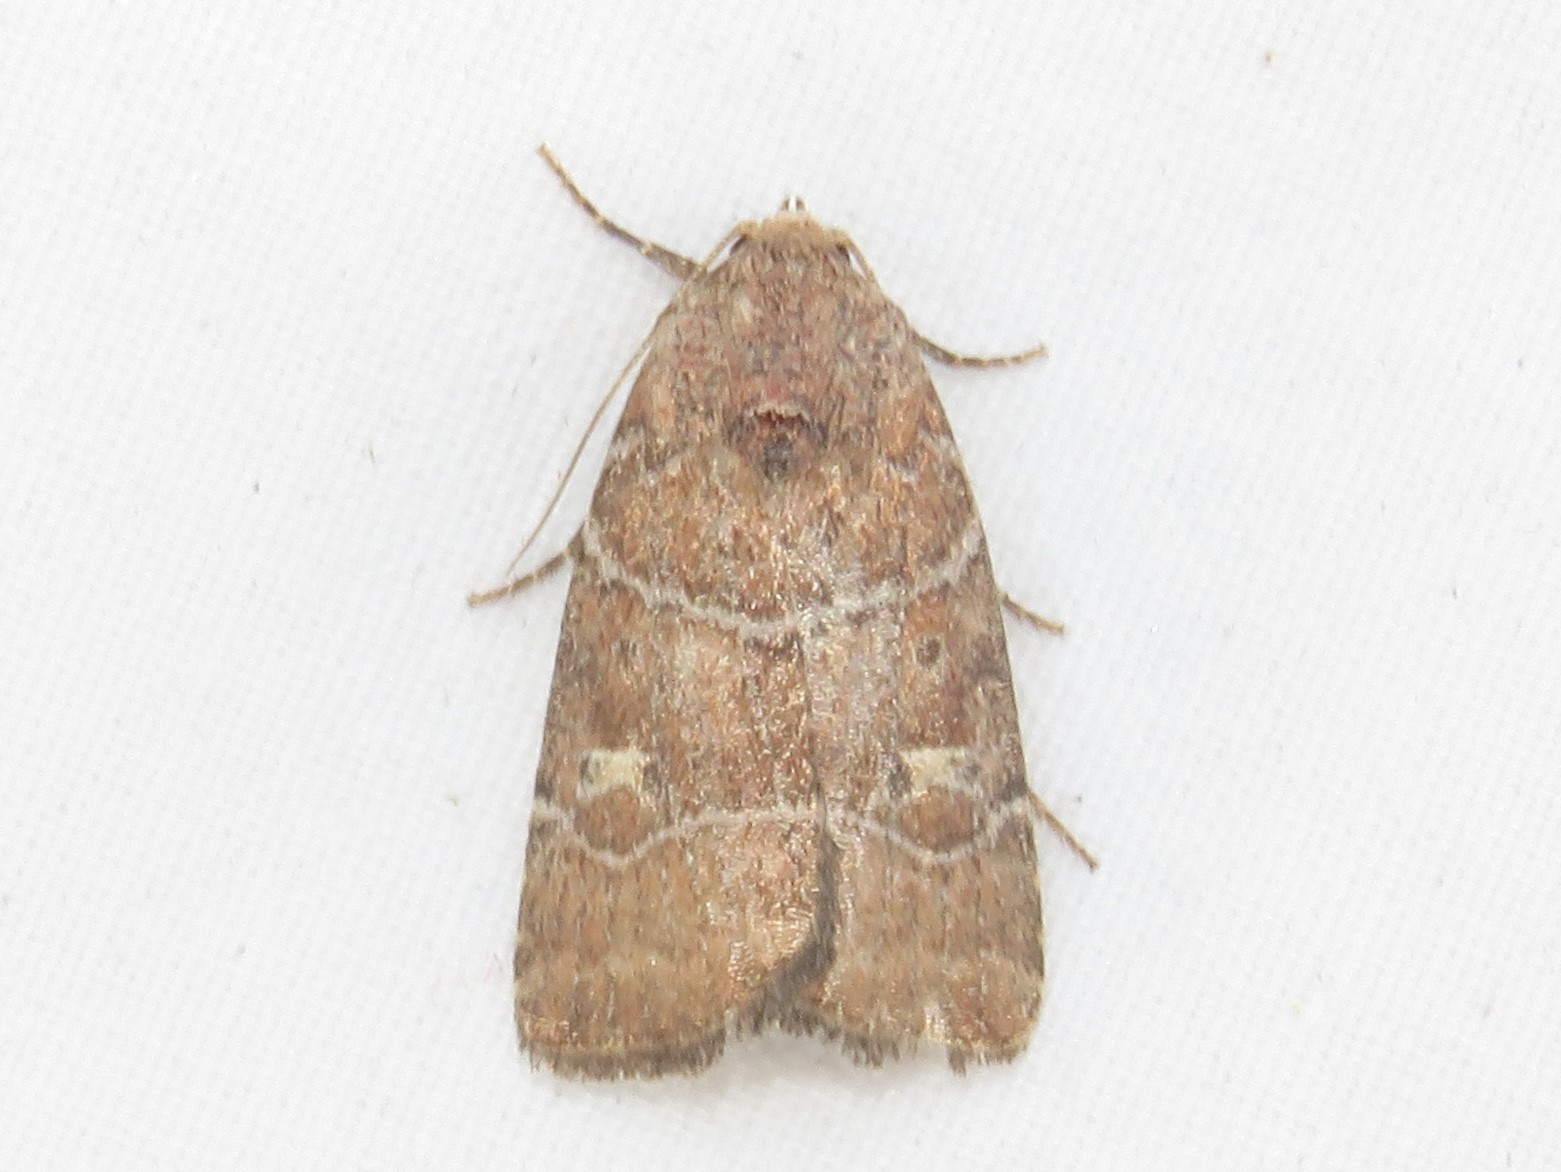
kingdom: Animalia
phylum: Arthropoda
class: Insecta
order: Lepidoptera
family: Noctuidae
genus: Elaphria
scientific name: Elaphria grata
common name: Grateful midget moth
